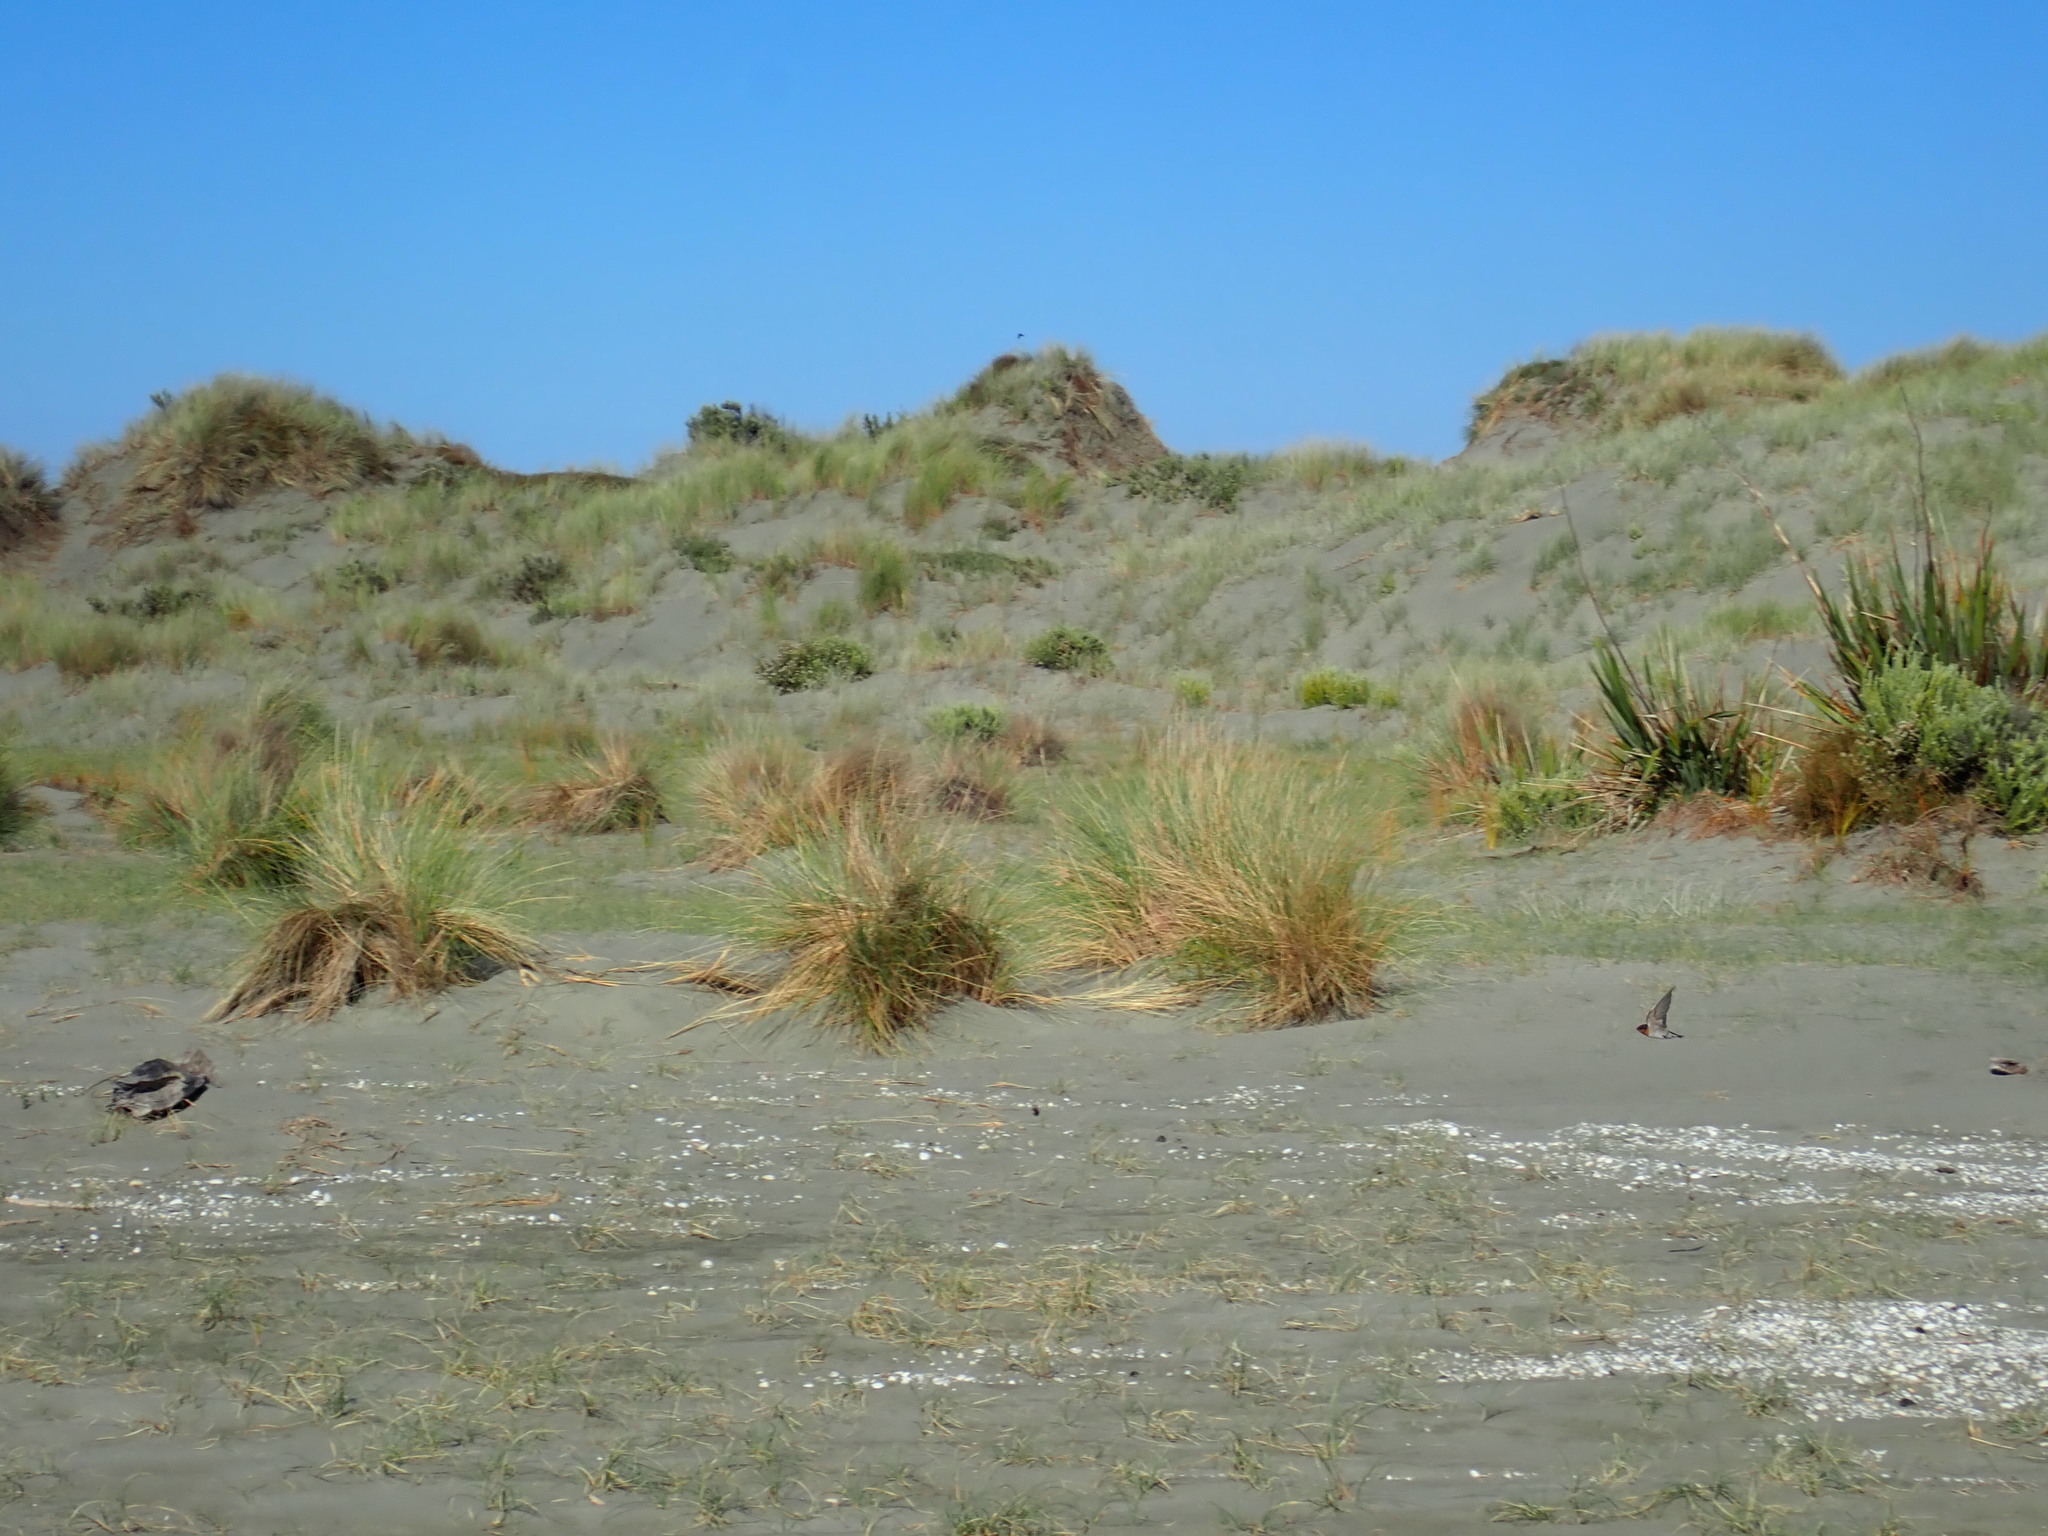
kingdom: Animalia
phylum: Chordata
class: Aves
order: Passeriformes
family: Hirundinidae
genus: Hirundo
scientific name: Hirundo neoxena
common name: Welcome swallow
